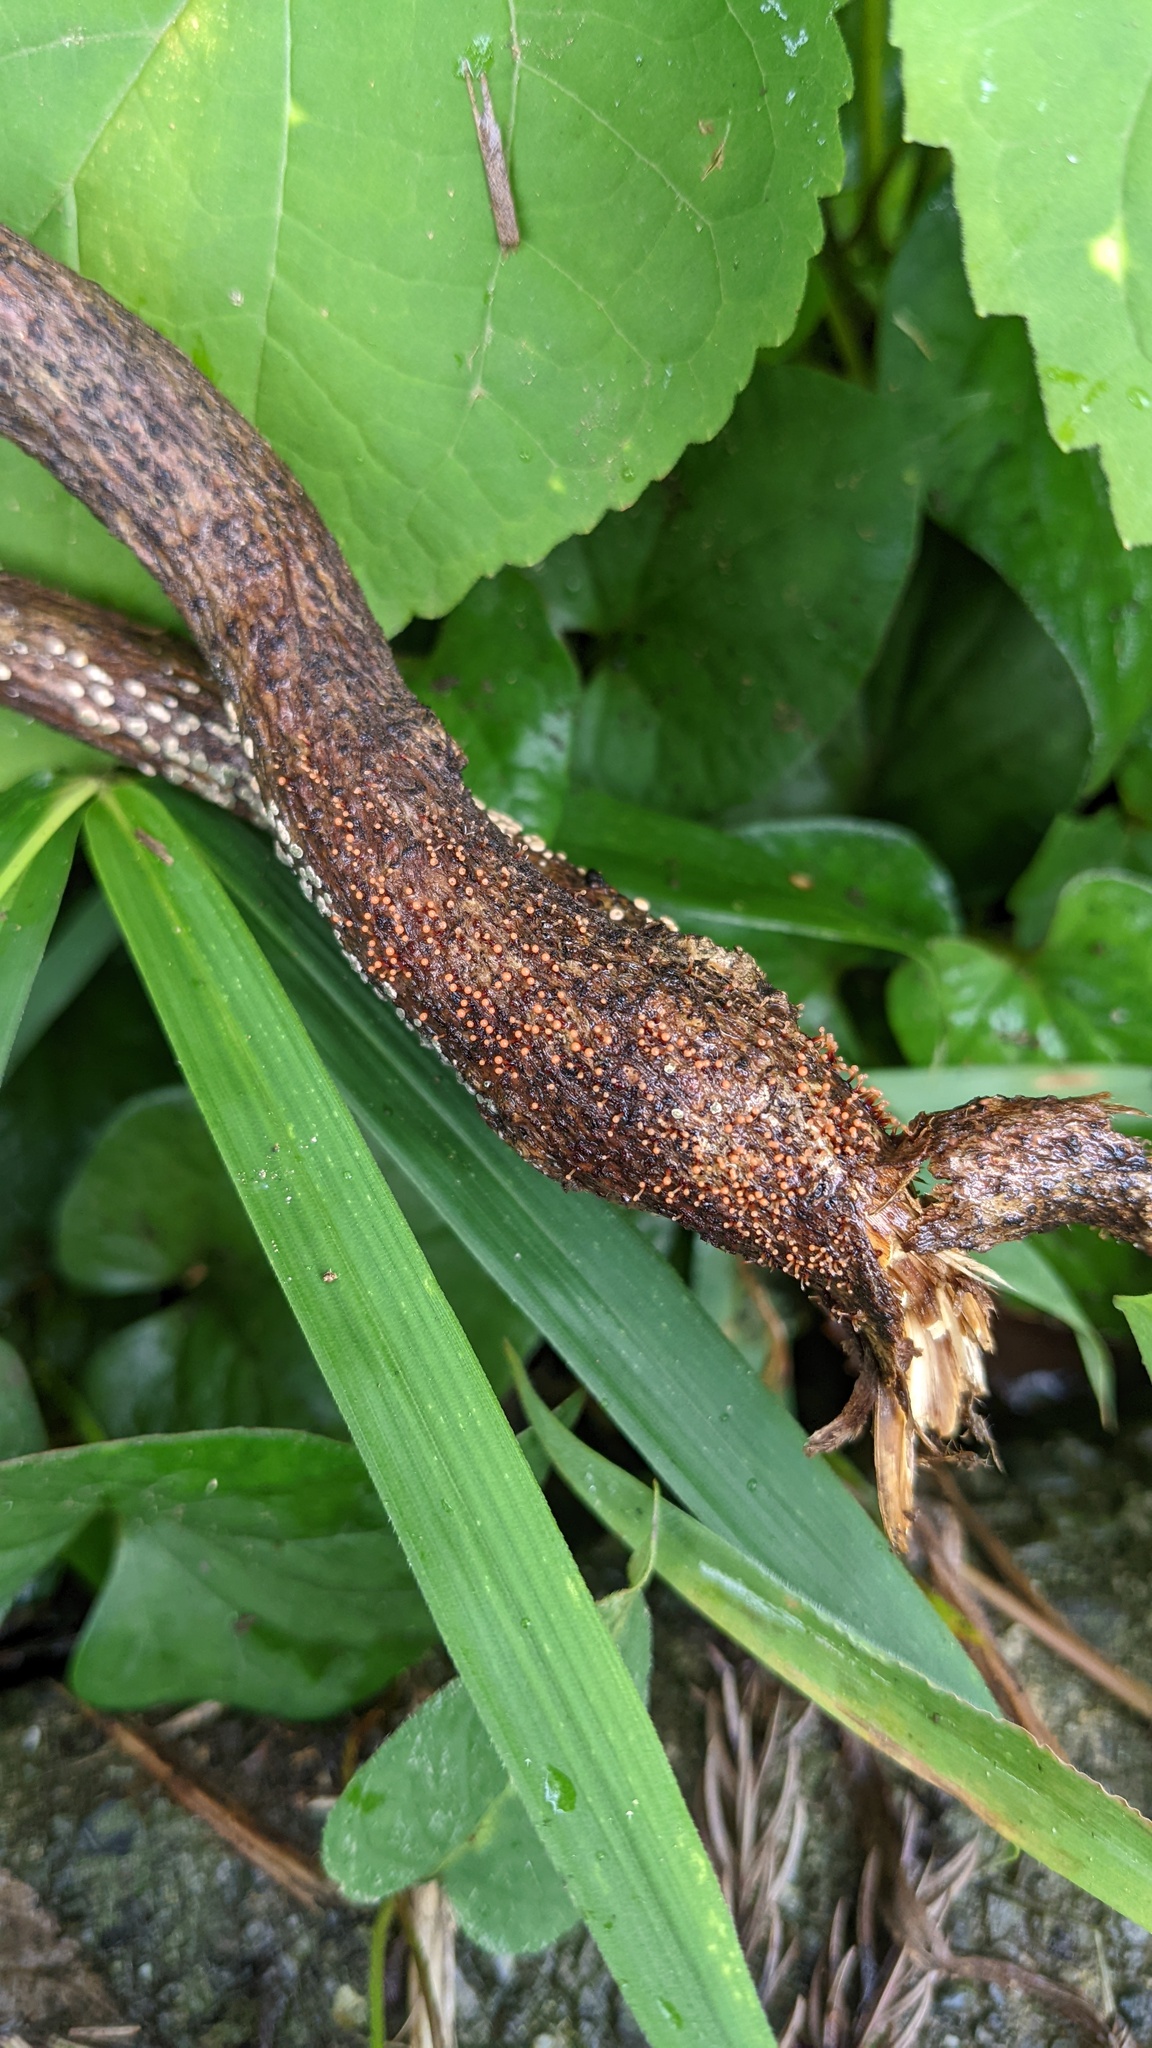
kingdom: Fungi
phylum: Ascomycota
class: Sordariomycetes
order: Hypocreales
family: Nectriaceae
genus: Nectria
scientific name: Nectria pseudotrichia
